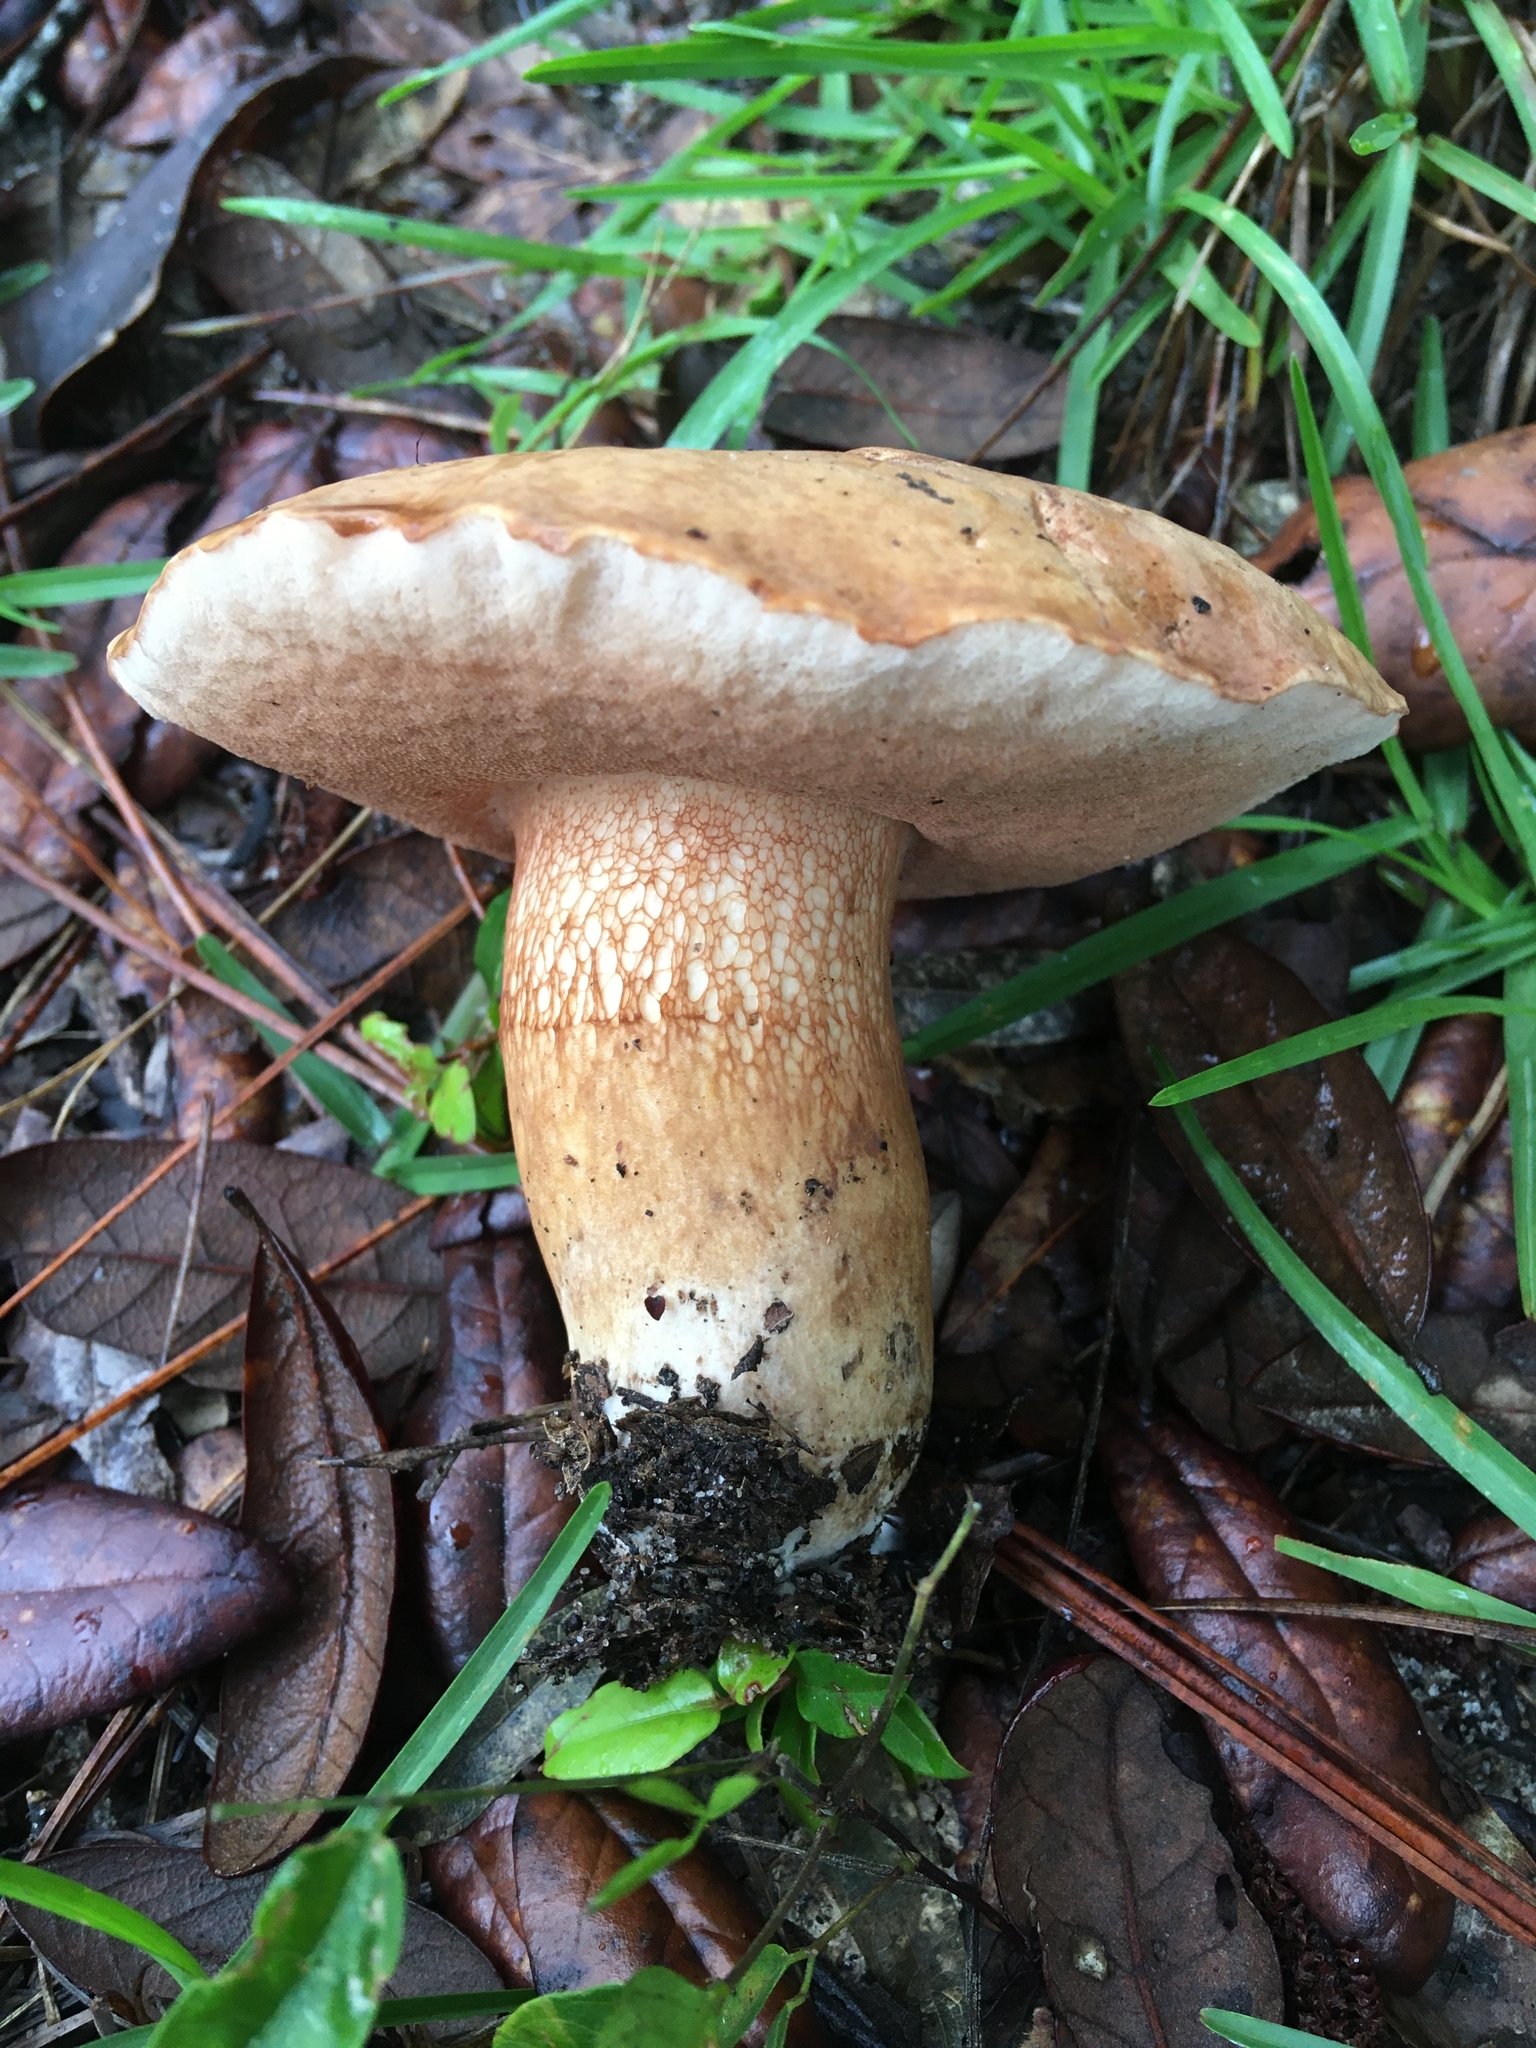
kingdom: Fungi
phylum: Basidiomycota
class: Agaricomycetes
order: Boletales
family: Boletaceae
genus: Tylopilus
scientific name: Tylopilus tabacinus
